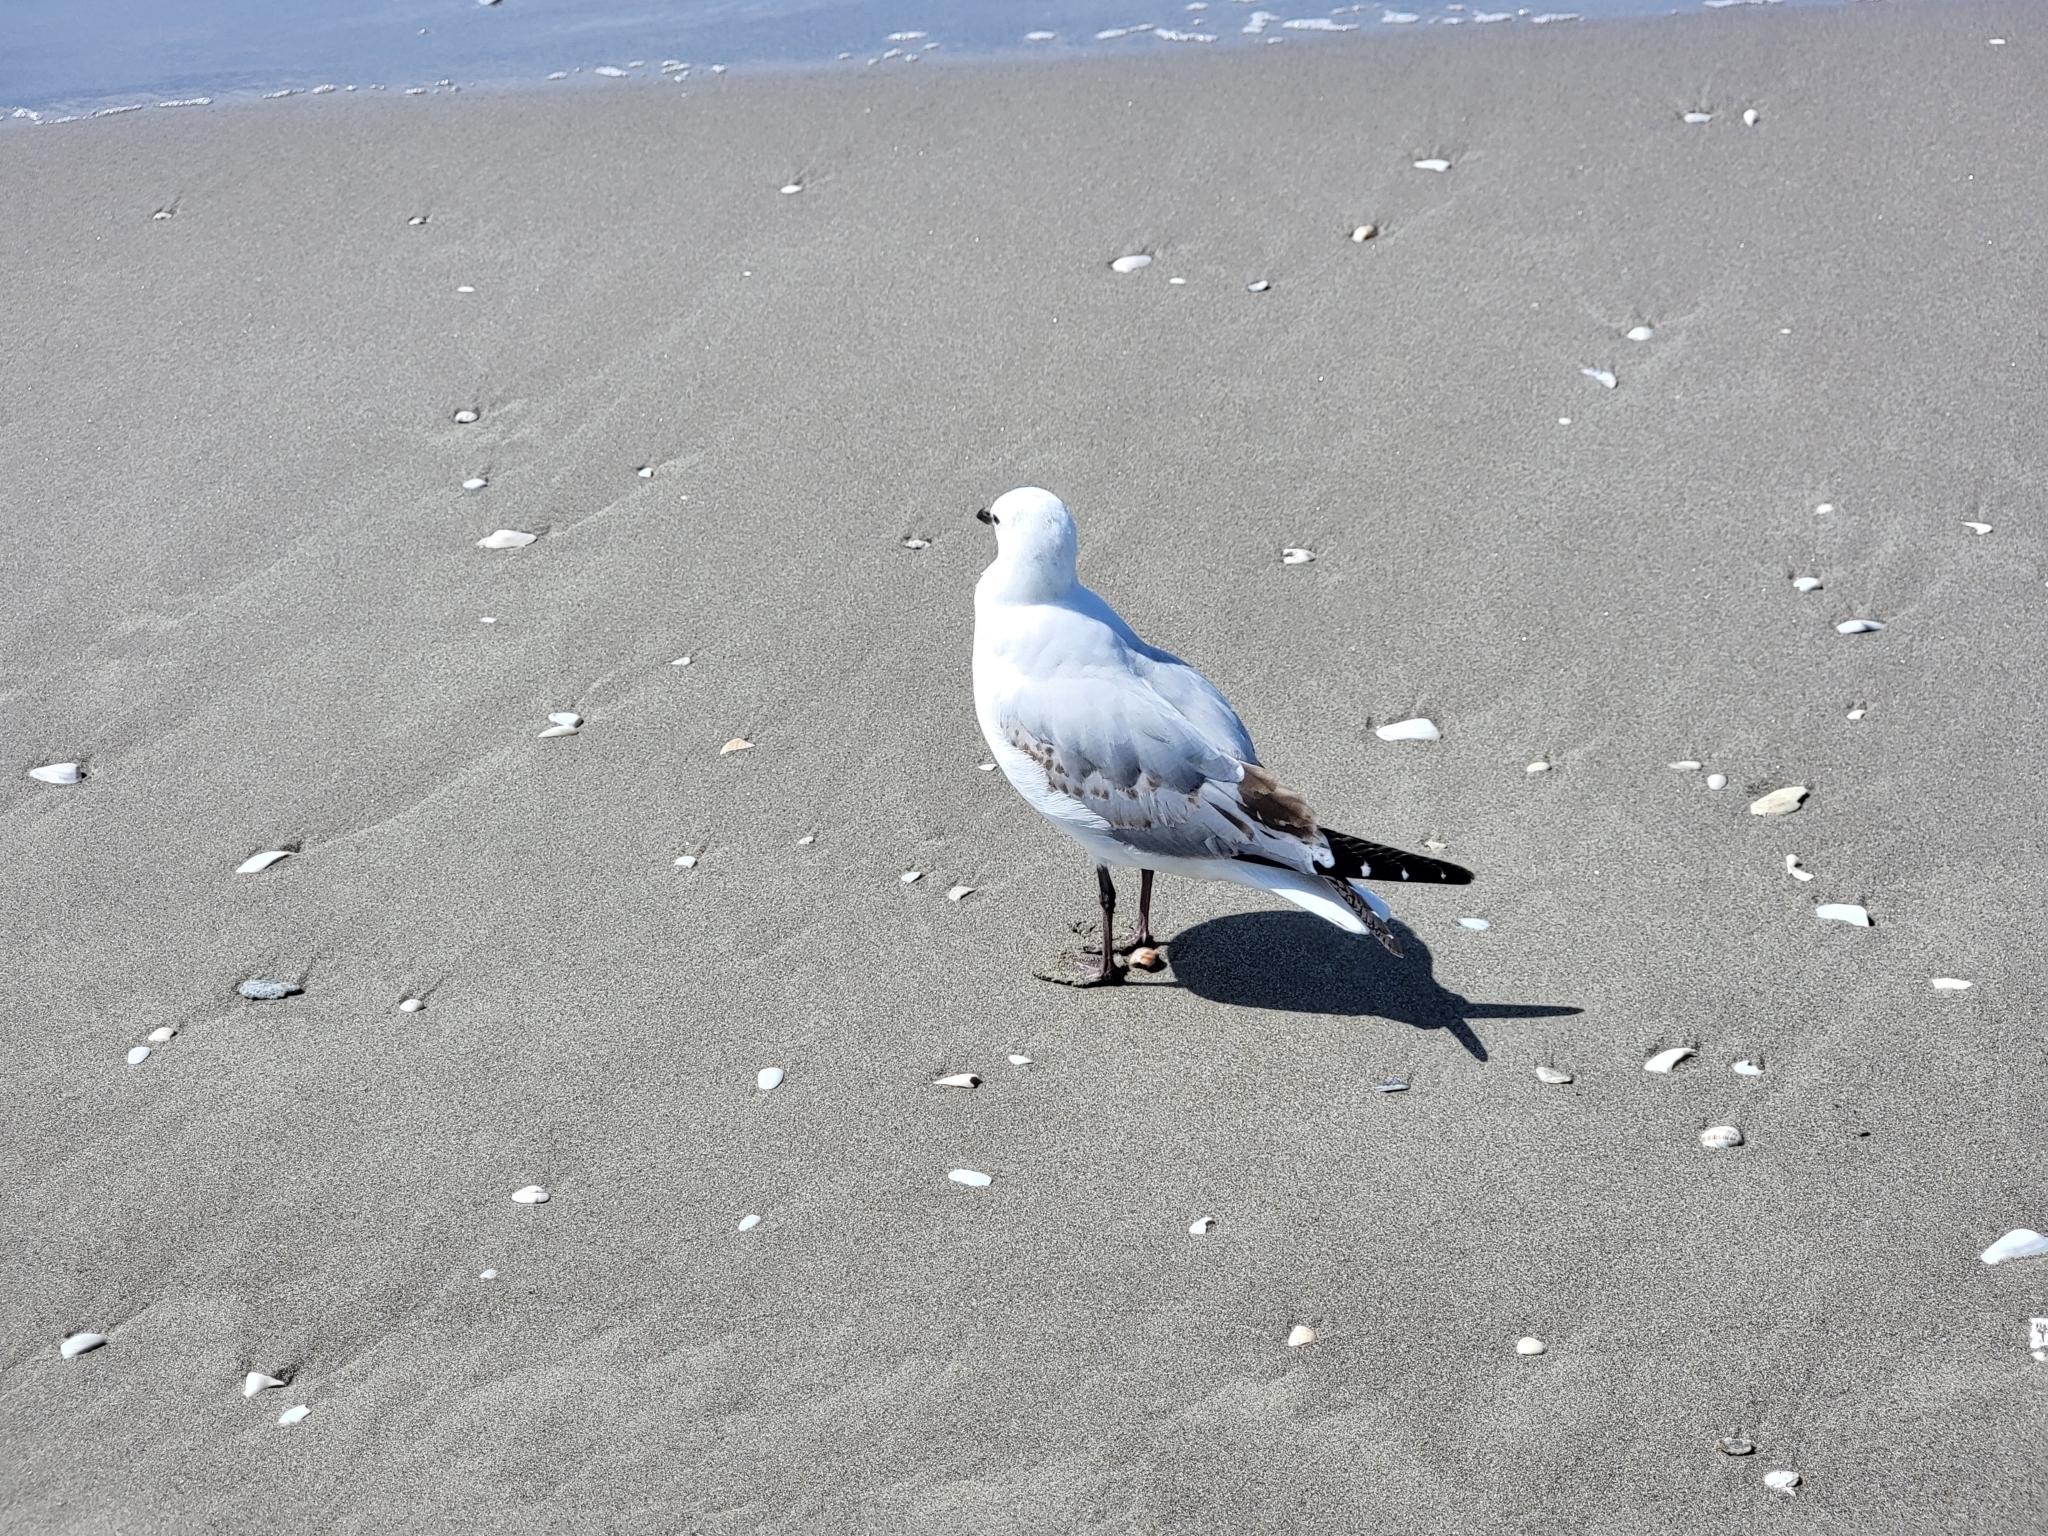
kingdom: Animalia
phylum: Chordata
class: Aves
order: Charadriiformes
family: Laridae
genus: Chroicocephalus
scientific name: Chroicocephalus novaehollandiae
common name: Silver gull
